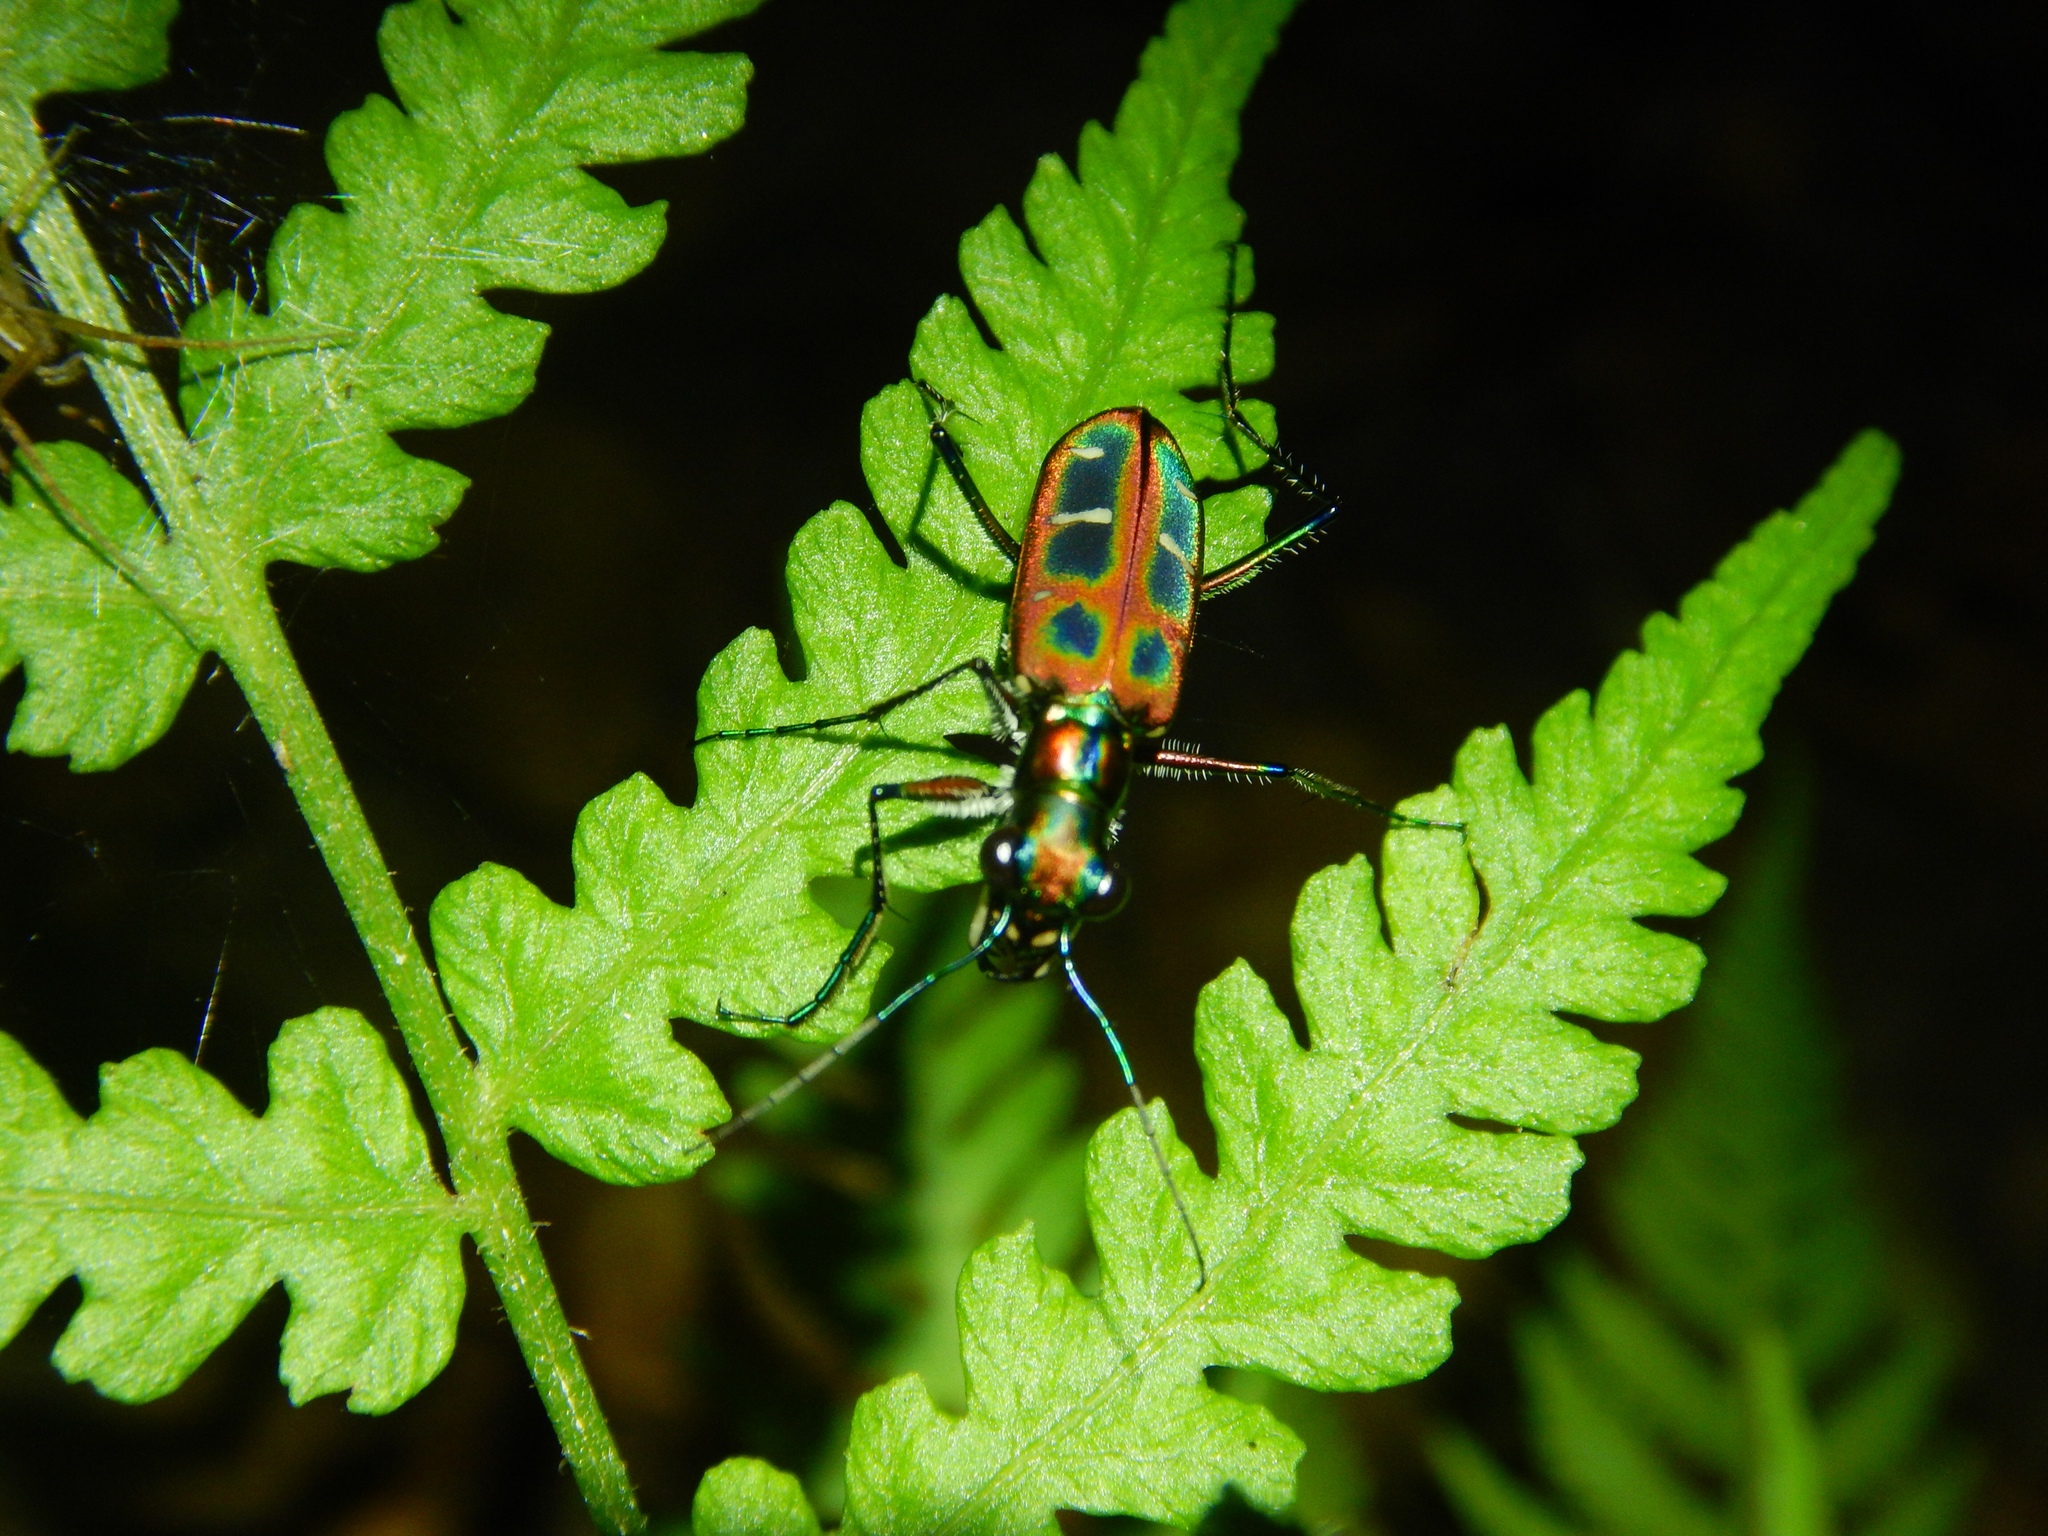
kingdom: Animalia
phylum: Arthropoda
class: Insecta
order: Coleoptera
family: Carabidae
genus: Cicindela
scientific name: Cicindela barmanica
